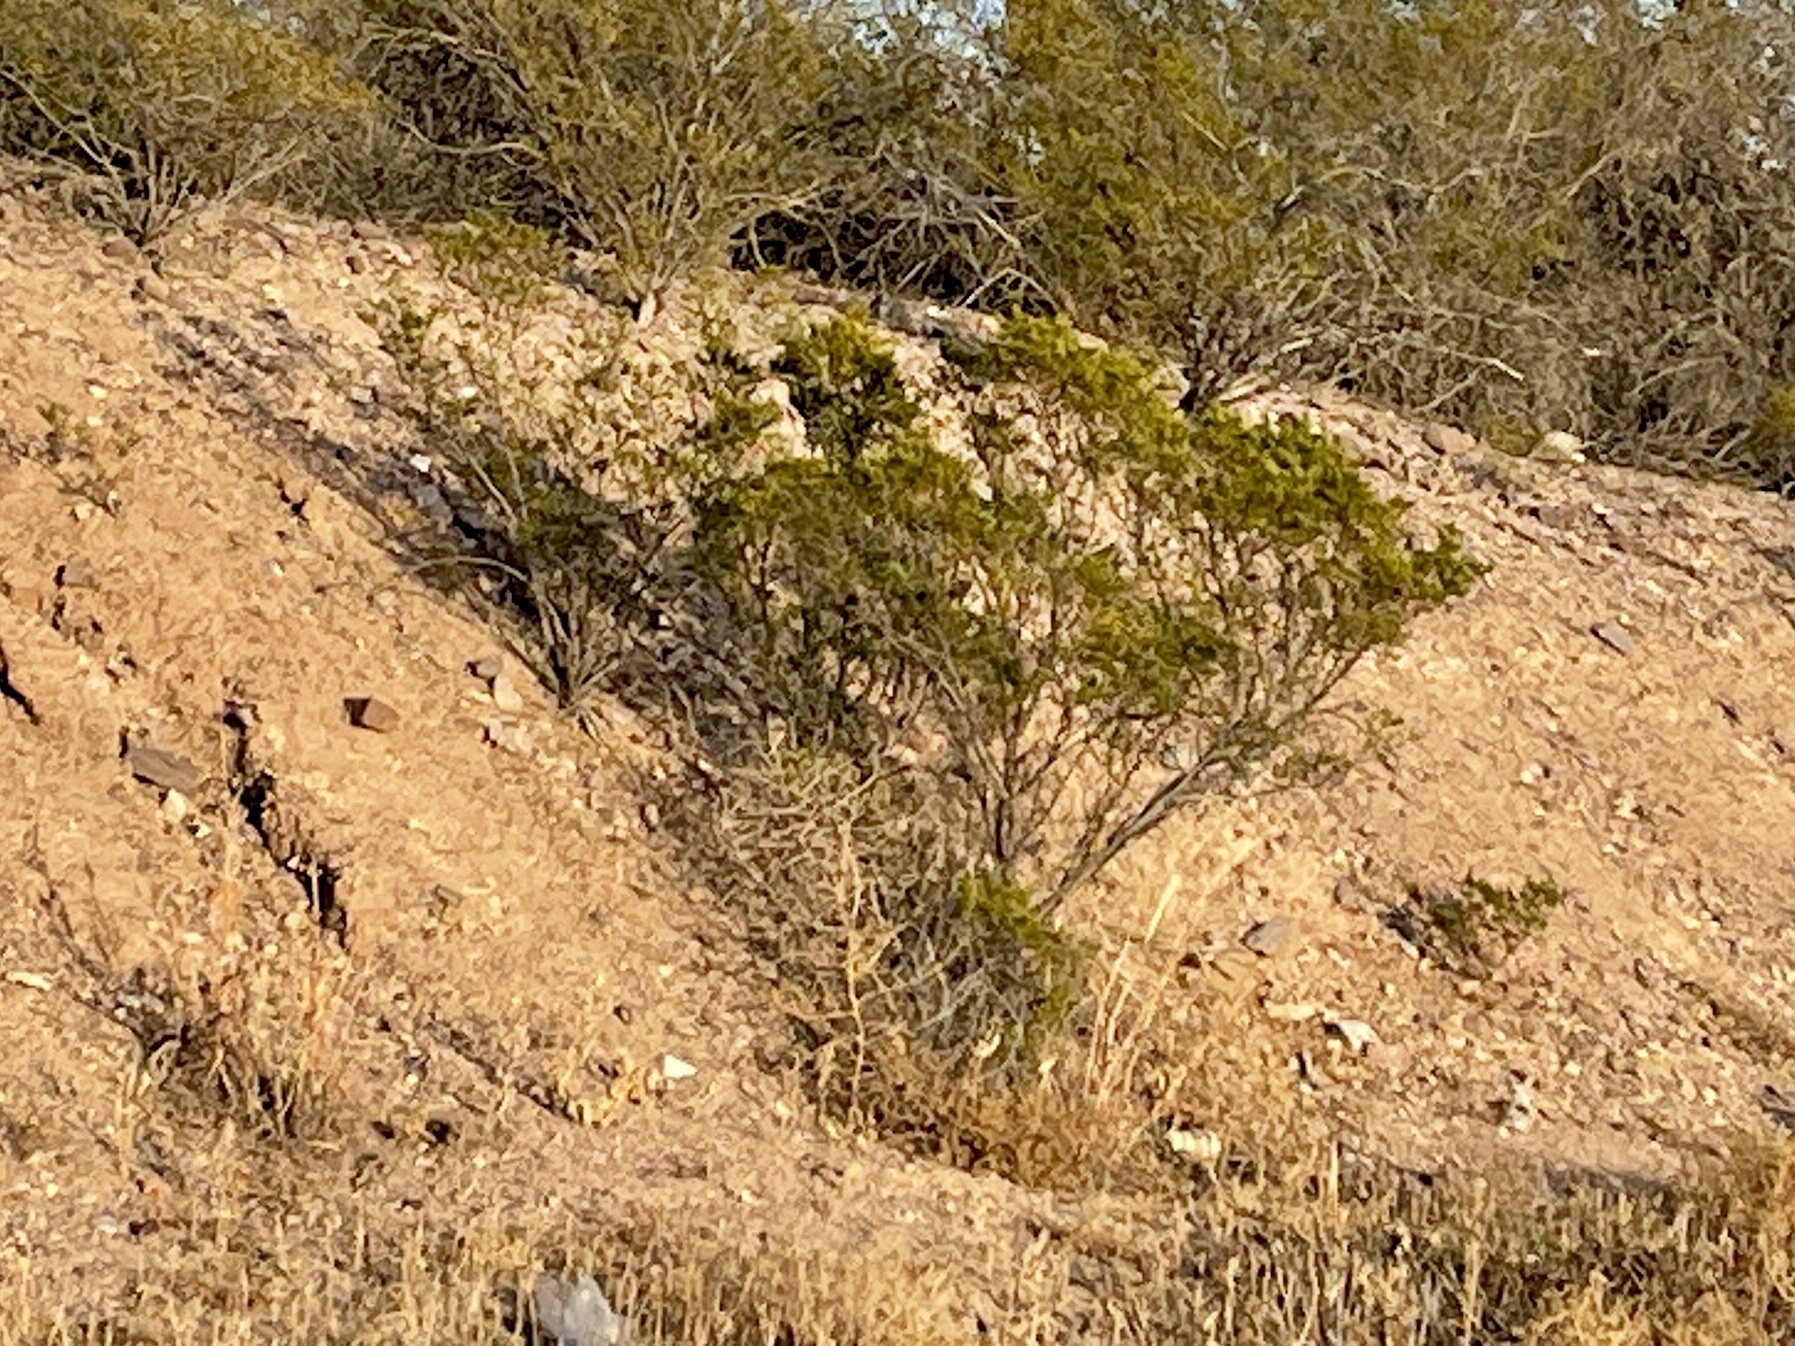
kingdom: Plantae
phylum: Tracheophyta
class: Magnoliopsida
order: Zygophyllales
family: Zygophyllaceae
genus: Larrea
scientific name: Larrea tridentata
